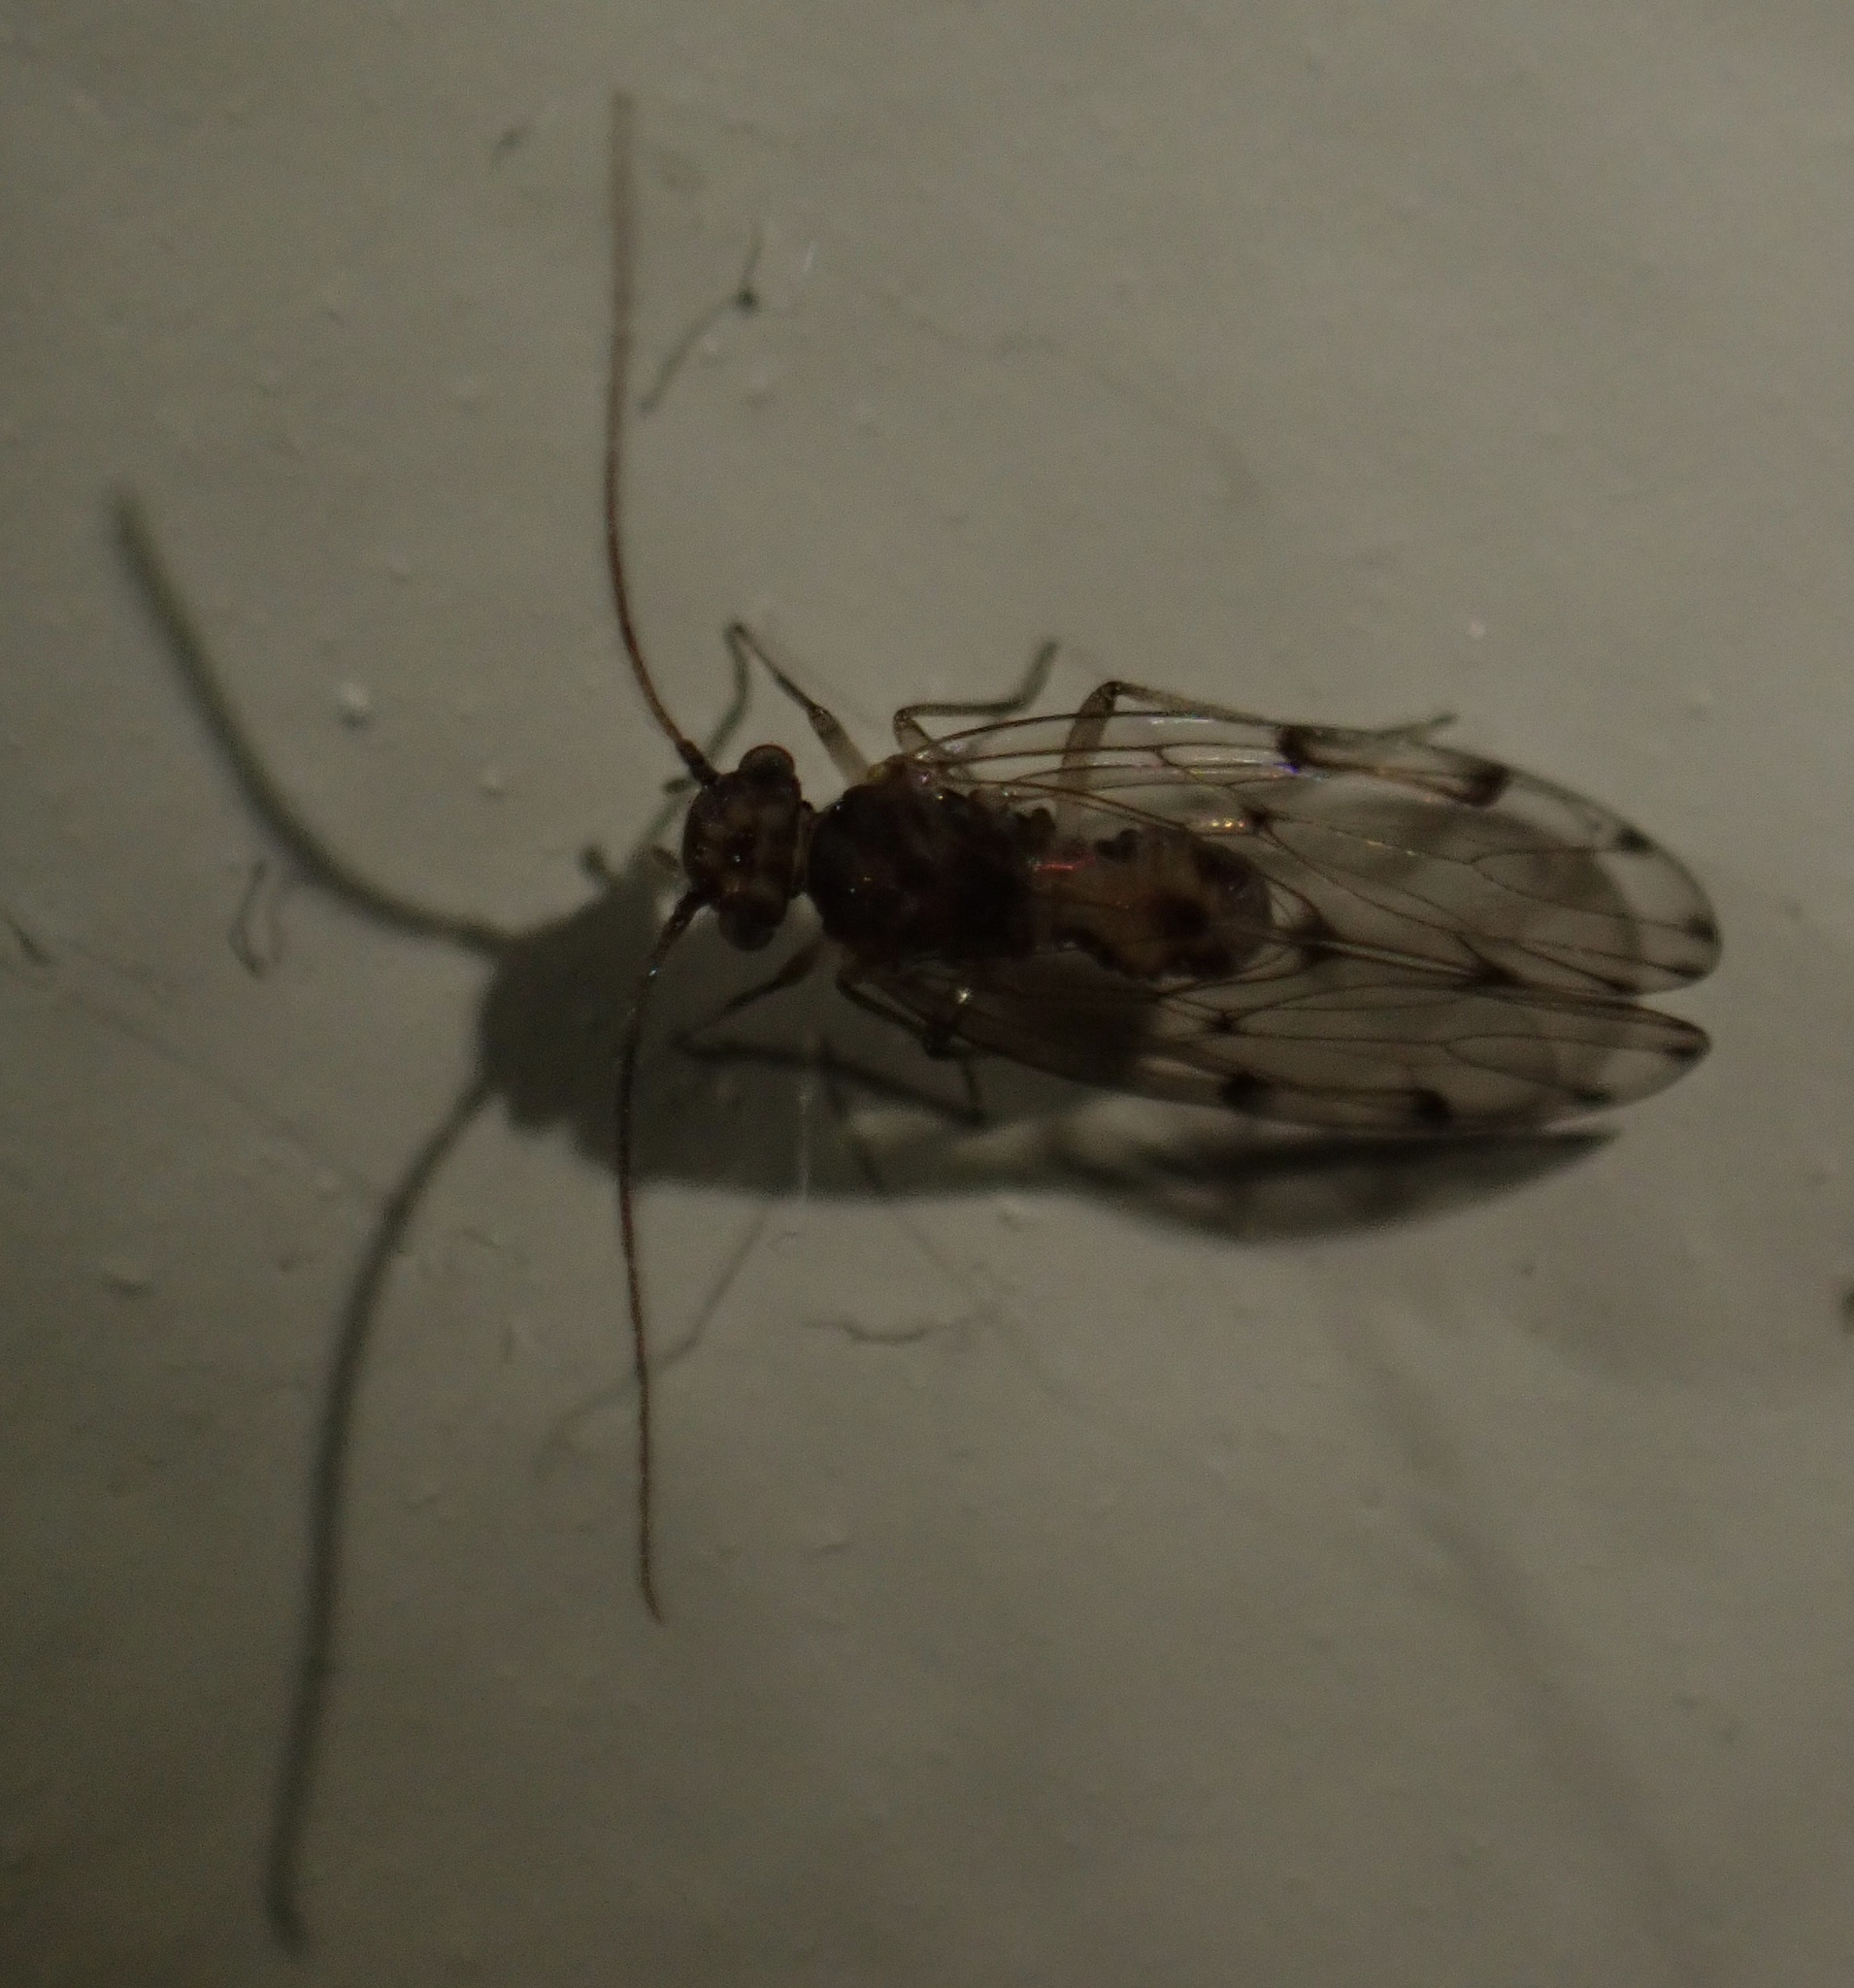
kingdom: Animalia
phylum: Arthropoda
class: Insecta
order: Psocodea
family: Ectopsocidae
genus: Ectopsocus
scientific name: Ectopsocus petersi
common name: Medium-sized bark louse
